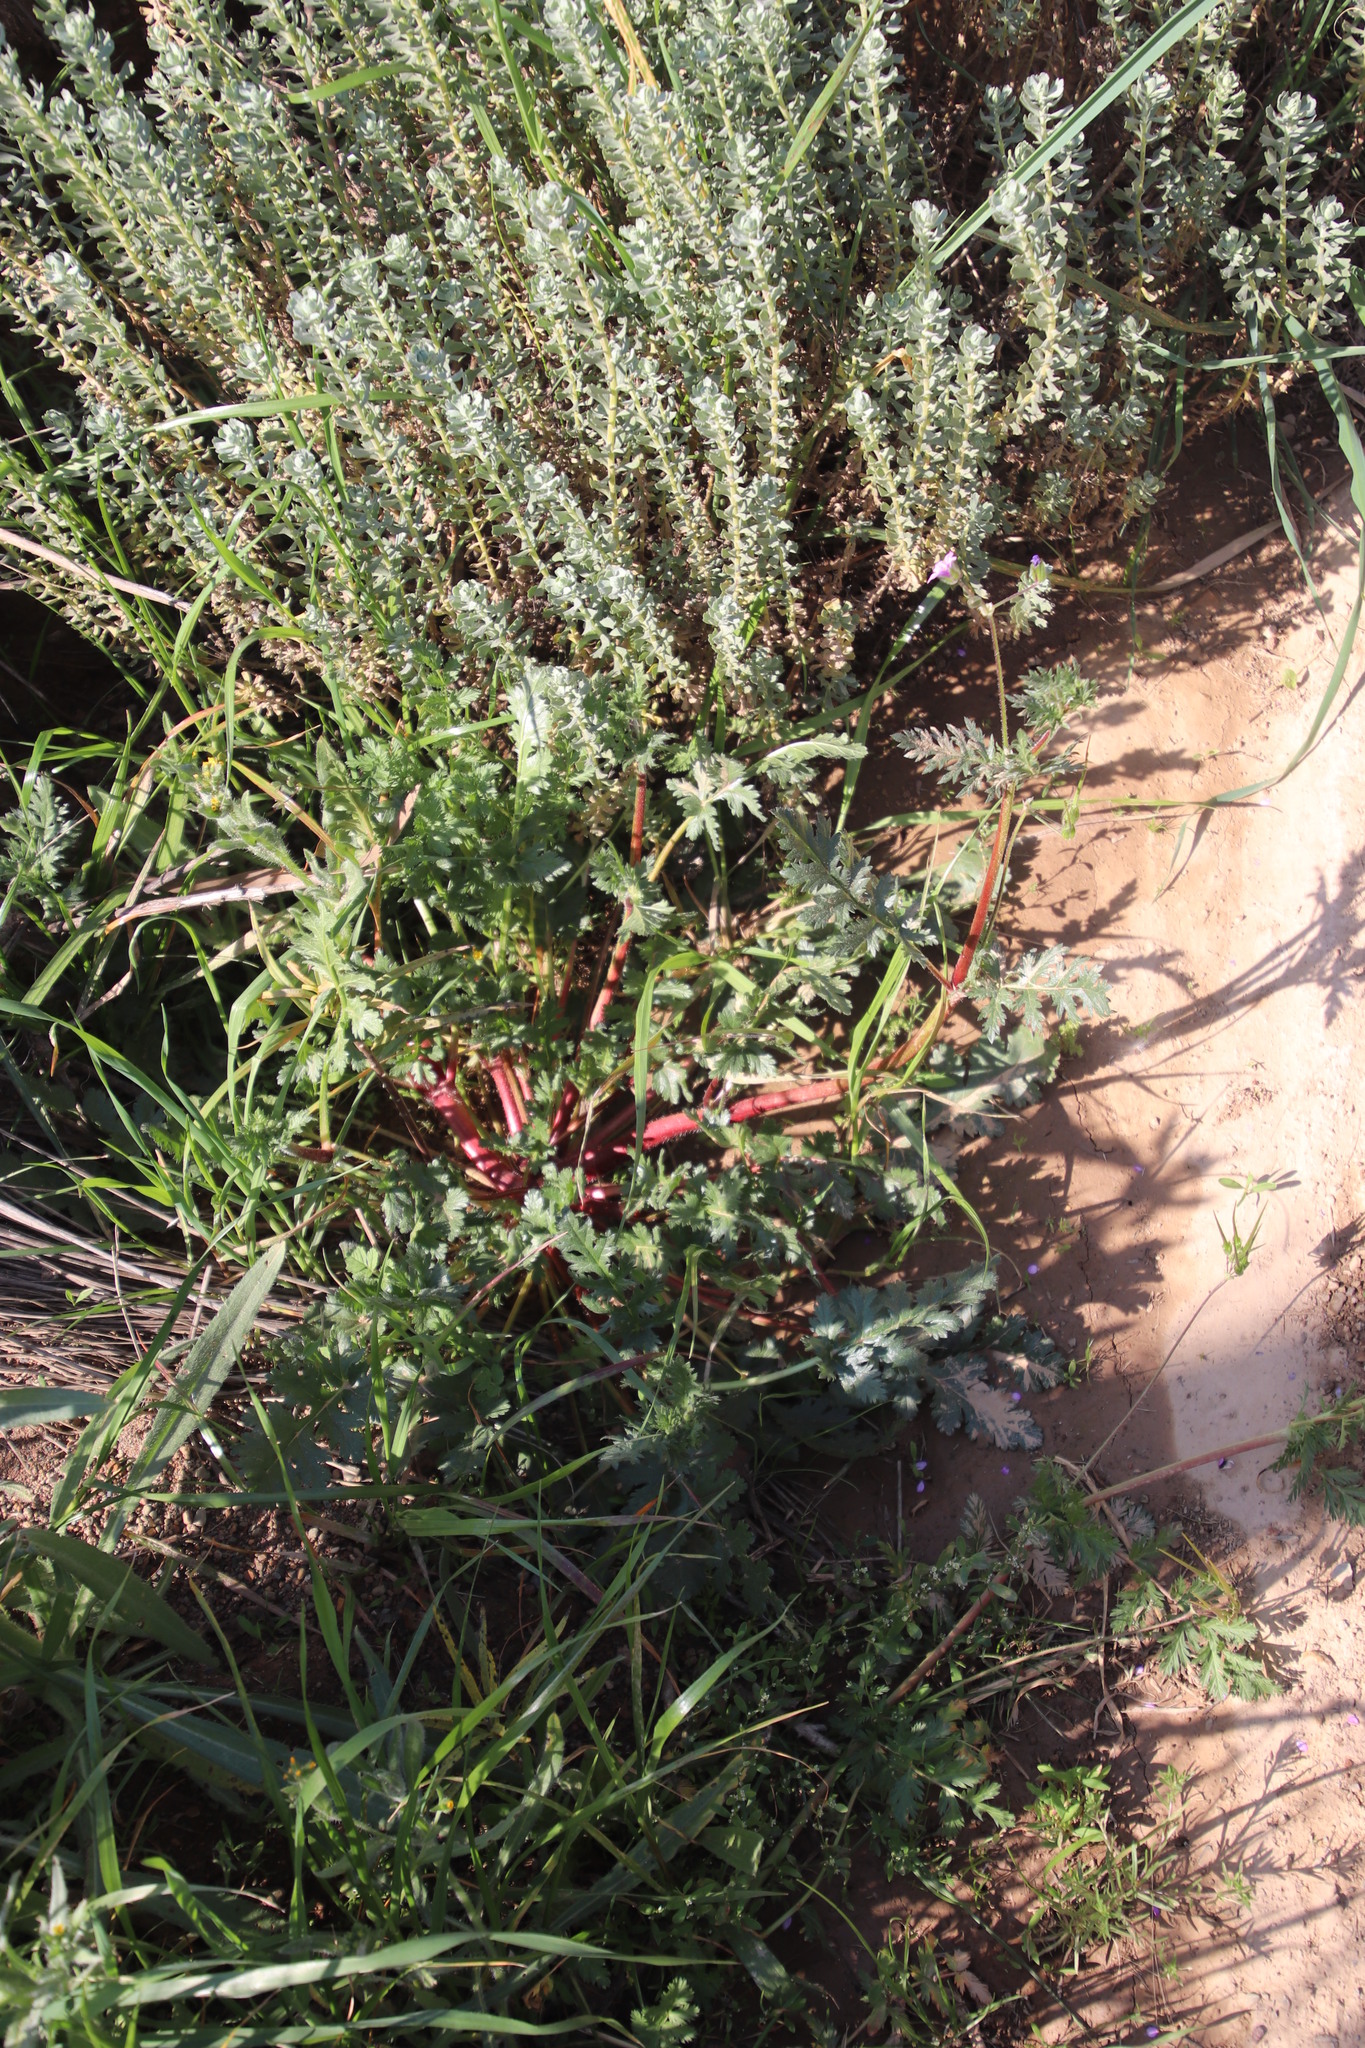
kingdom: Plantae
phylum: Tracheophyta
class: Magnoliopsida
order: Geraniales
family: Geraniaceae
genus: Erodium
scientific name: Erodium botrys
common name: Mediterranean stork's-bill
